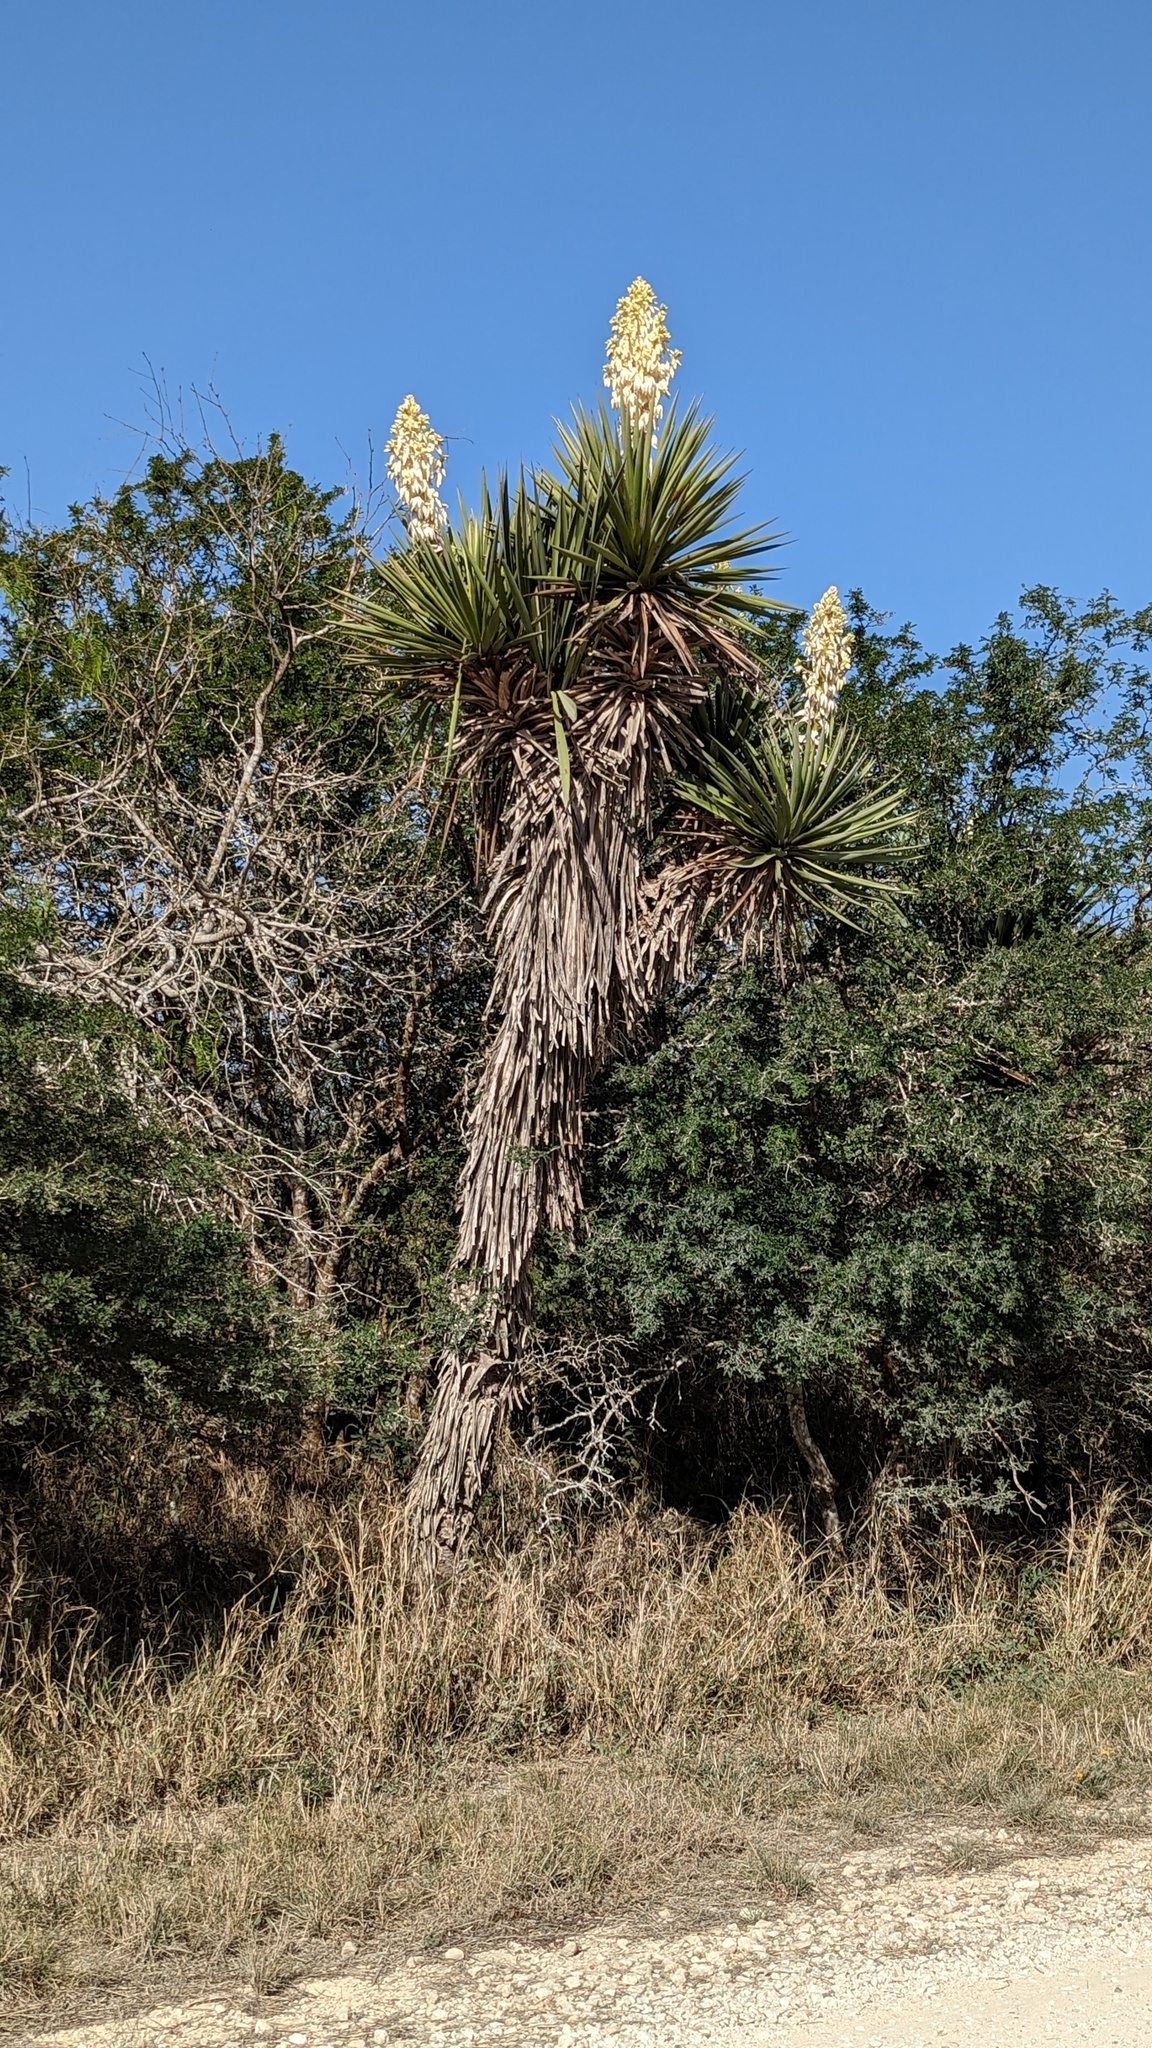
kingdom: Plantae
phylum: Tracheophyta
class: Liliopsida
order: Asparagales
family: Asparagaceae
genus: Yucca
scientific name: Yucca treculiana
